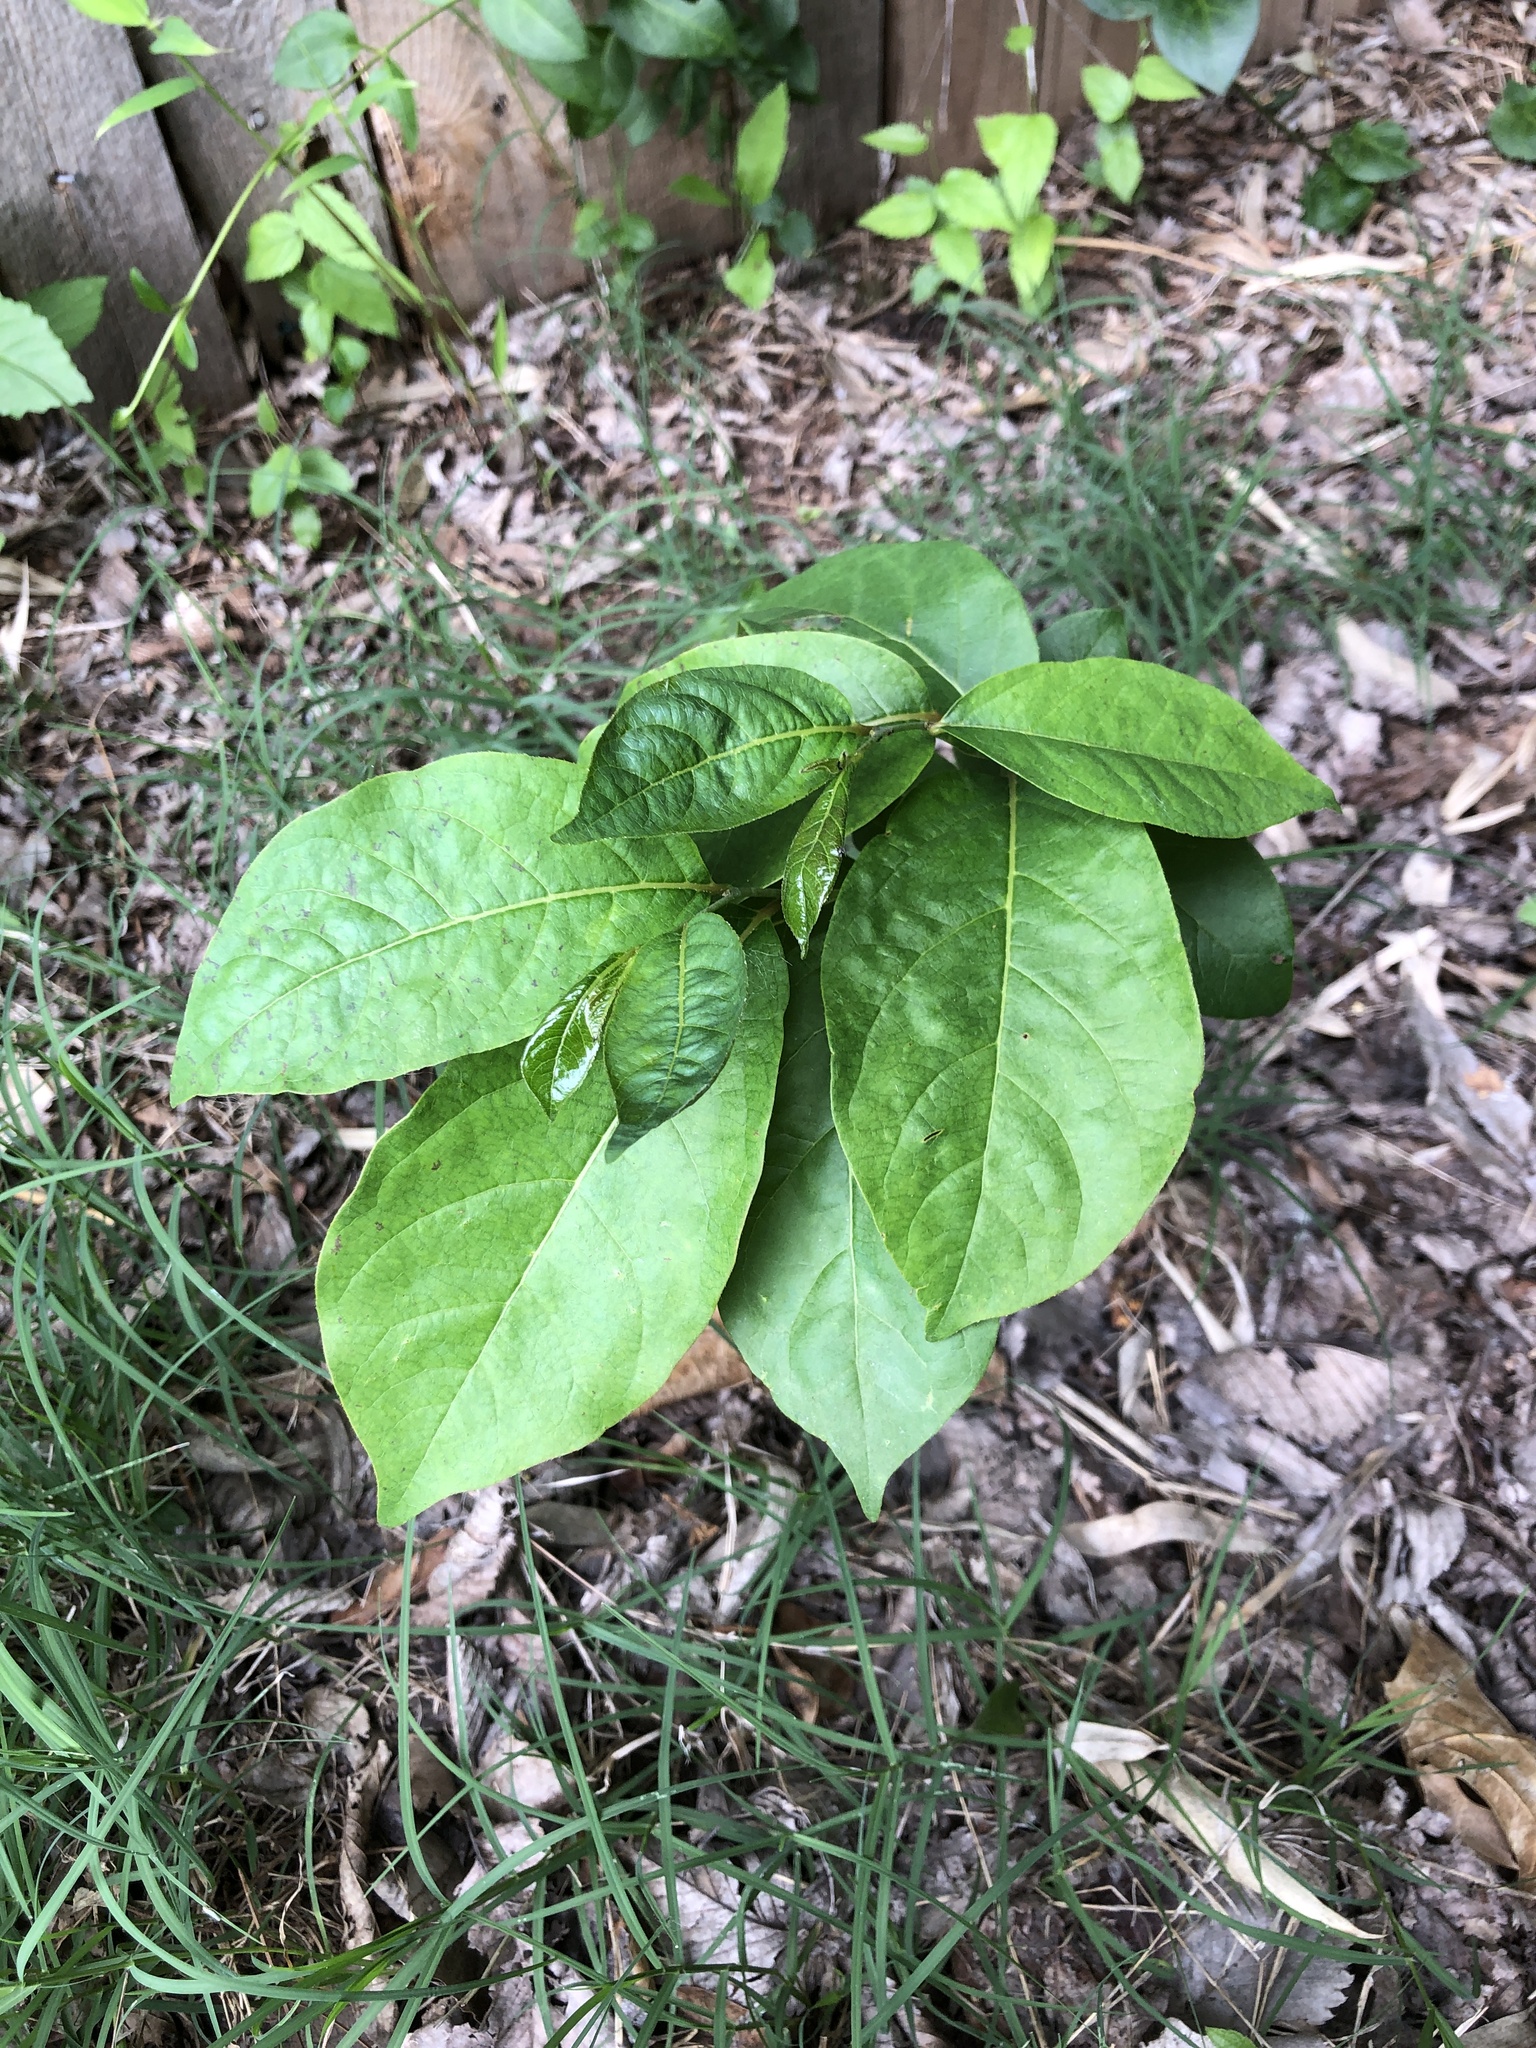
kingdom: Plantae
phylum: Tracheophyta
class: Magnoliopsida
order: Ericales
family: Ebenaceae
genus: Diospyros
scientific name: Diospyros virginiana
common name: Persimmon
